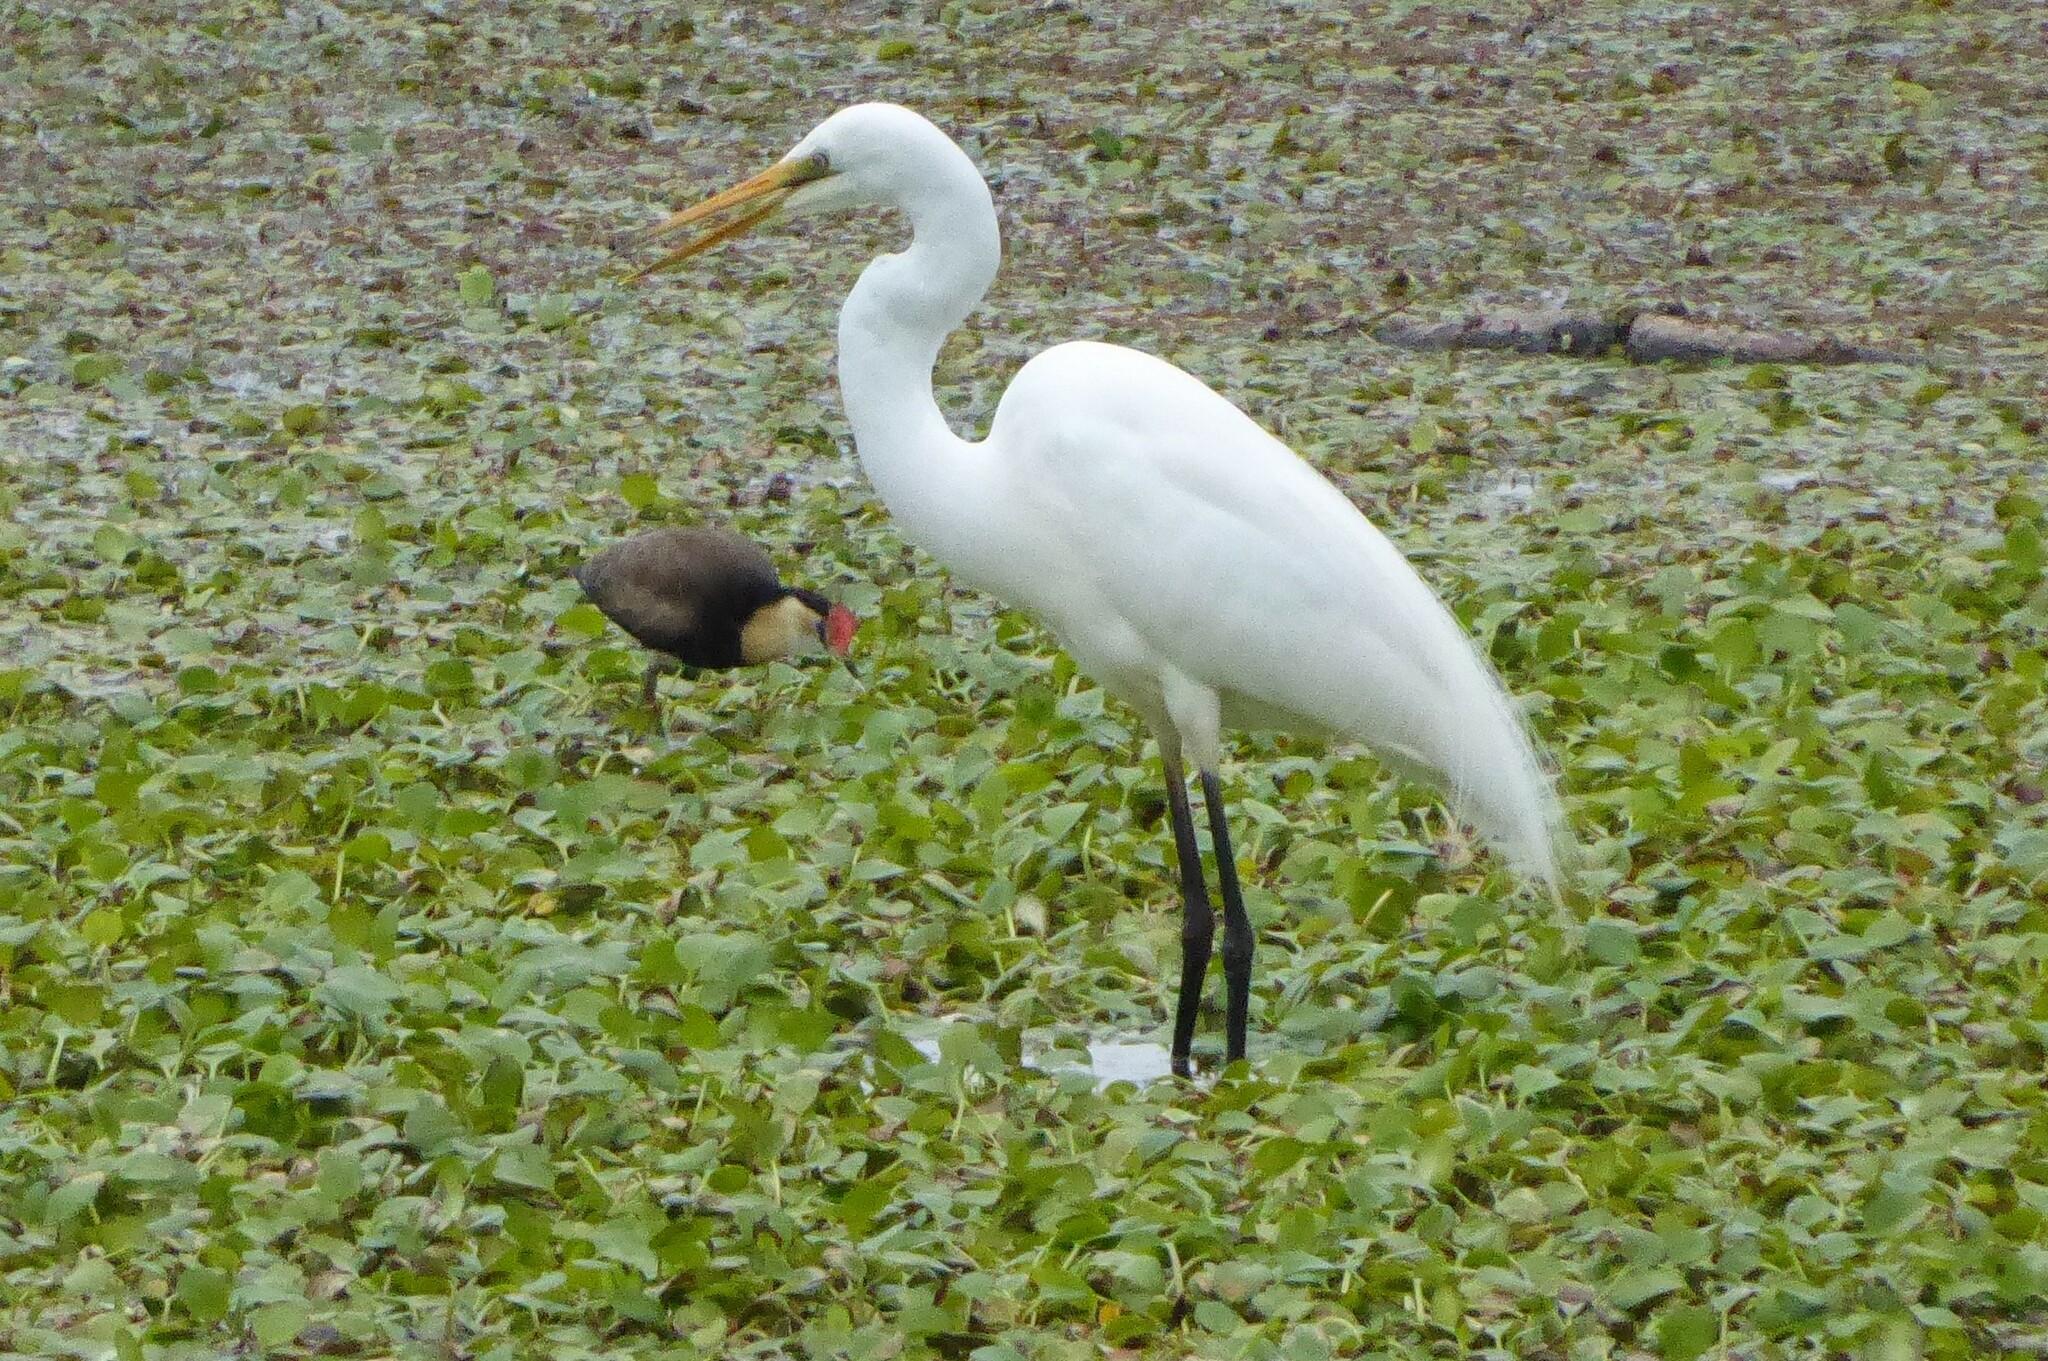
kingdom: Animalia
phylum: Chordata
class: Aves
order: Pelecaniformes
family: Ardeidae
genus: Ardea
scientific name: Ardea alba
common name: Great egret
